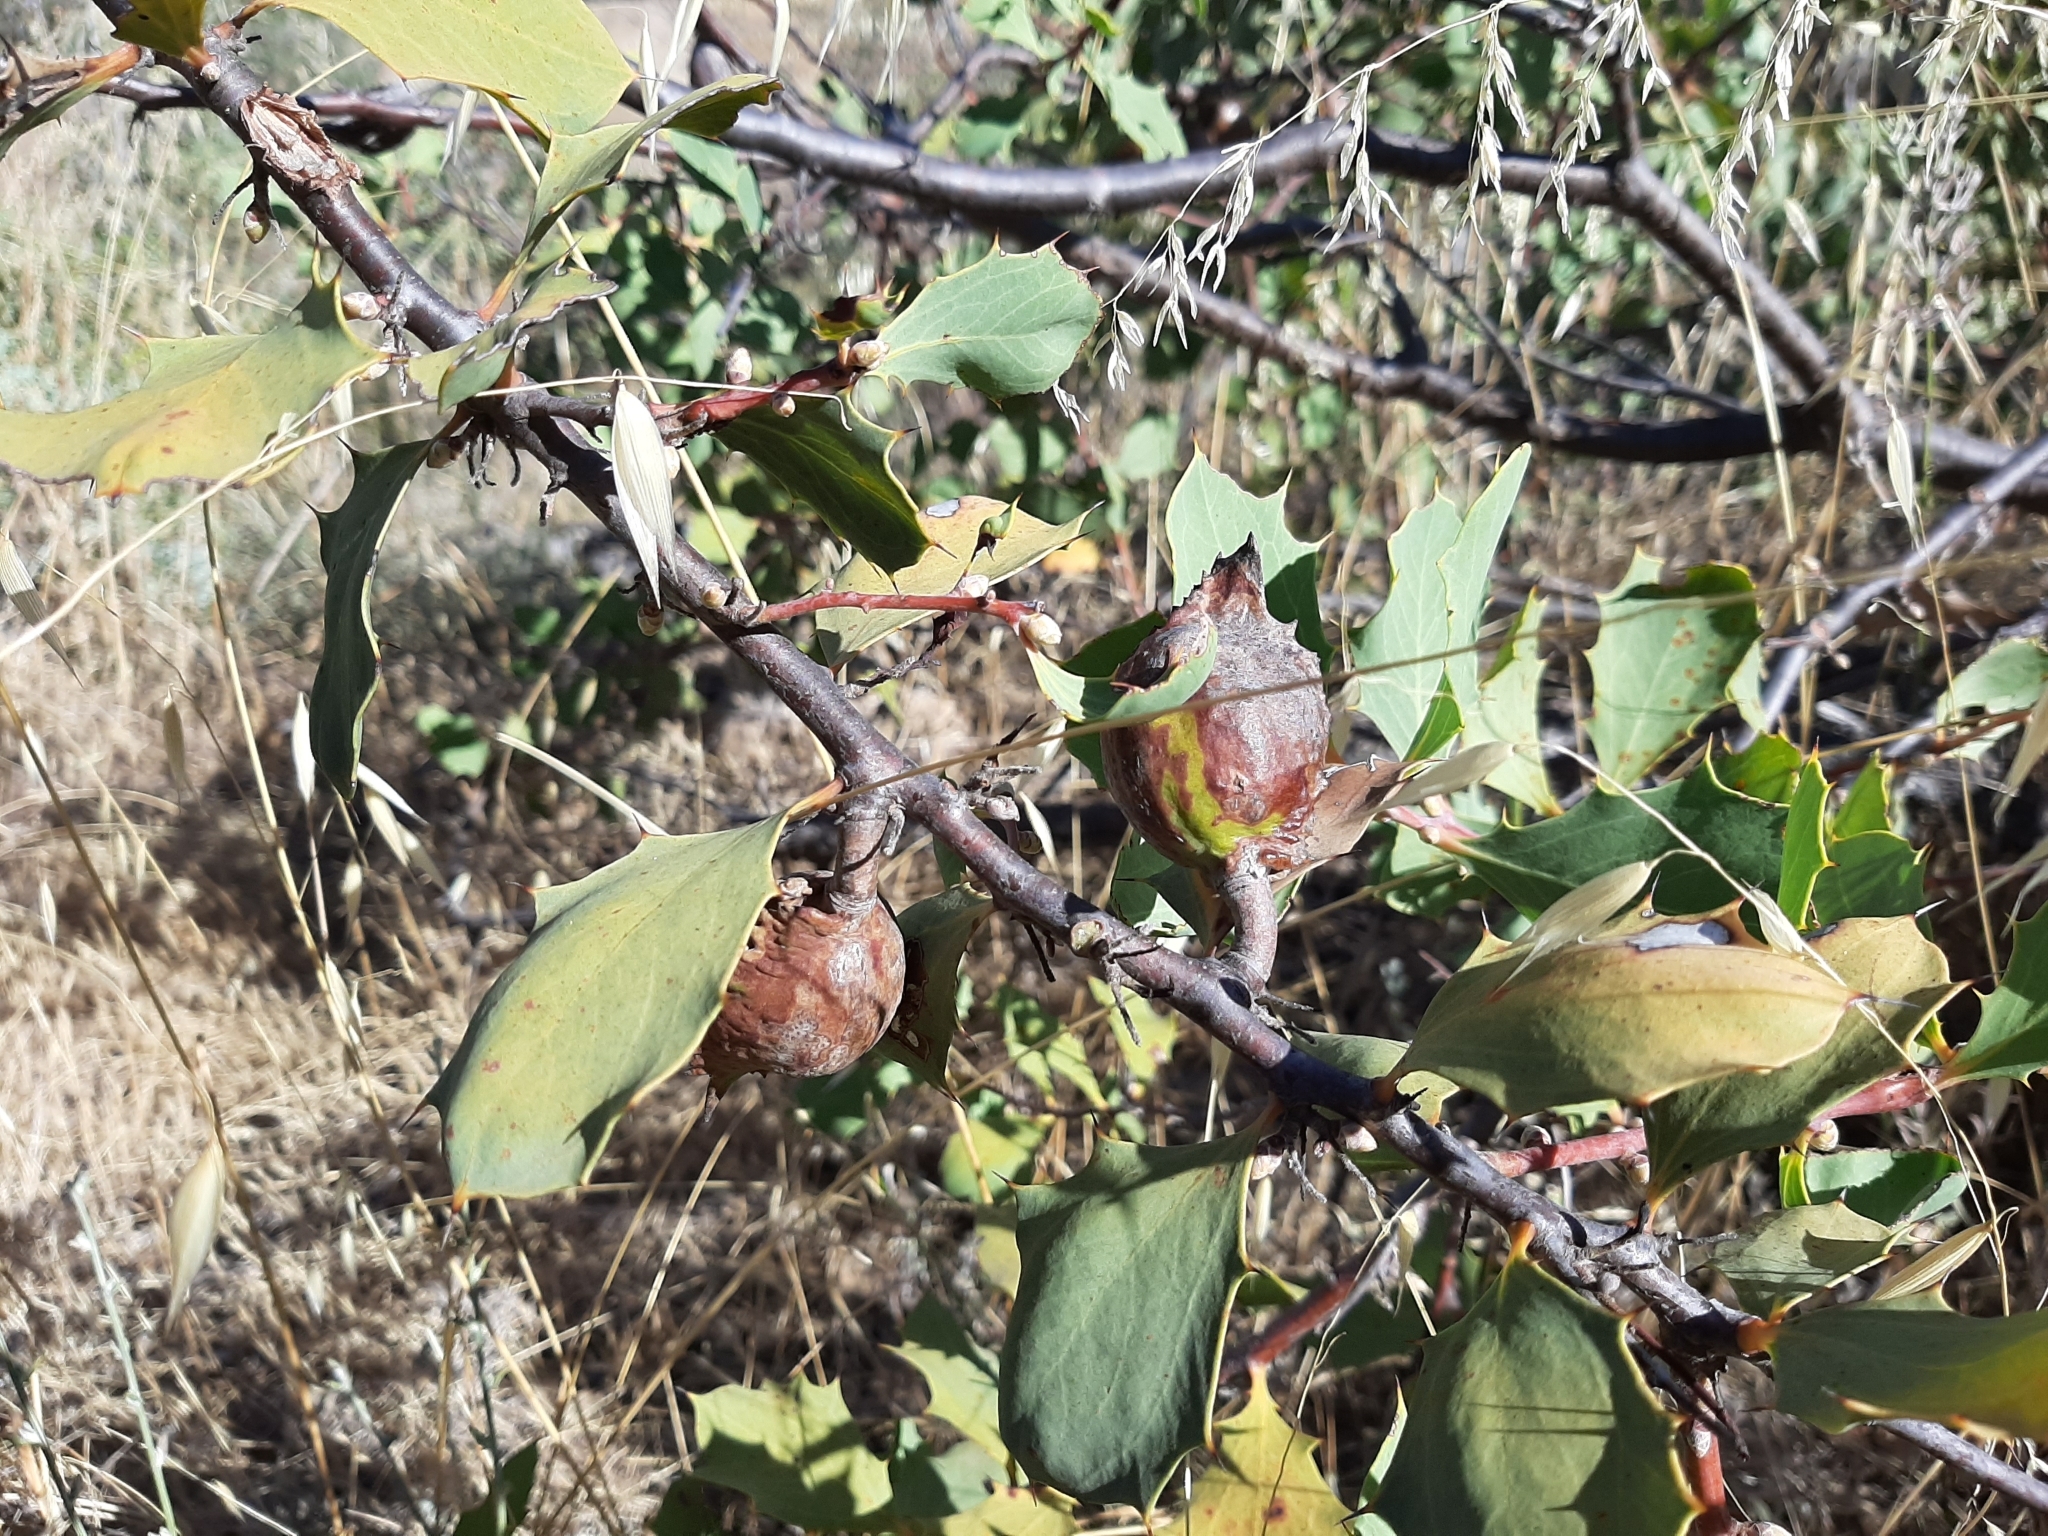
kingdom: Plantae
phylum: Tracheophyta
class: Magnoliopsida
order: Proteales
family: Proteaceae
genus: Hakea
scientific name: Hakea cristata
